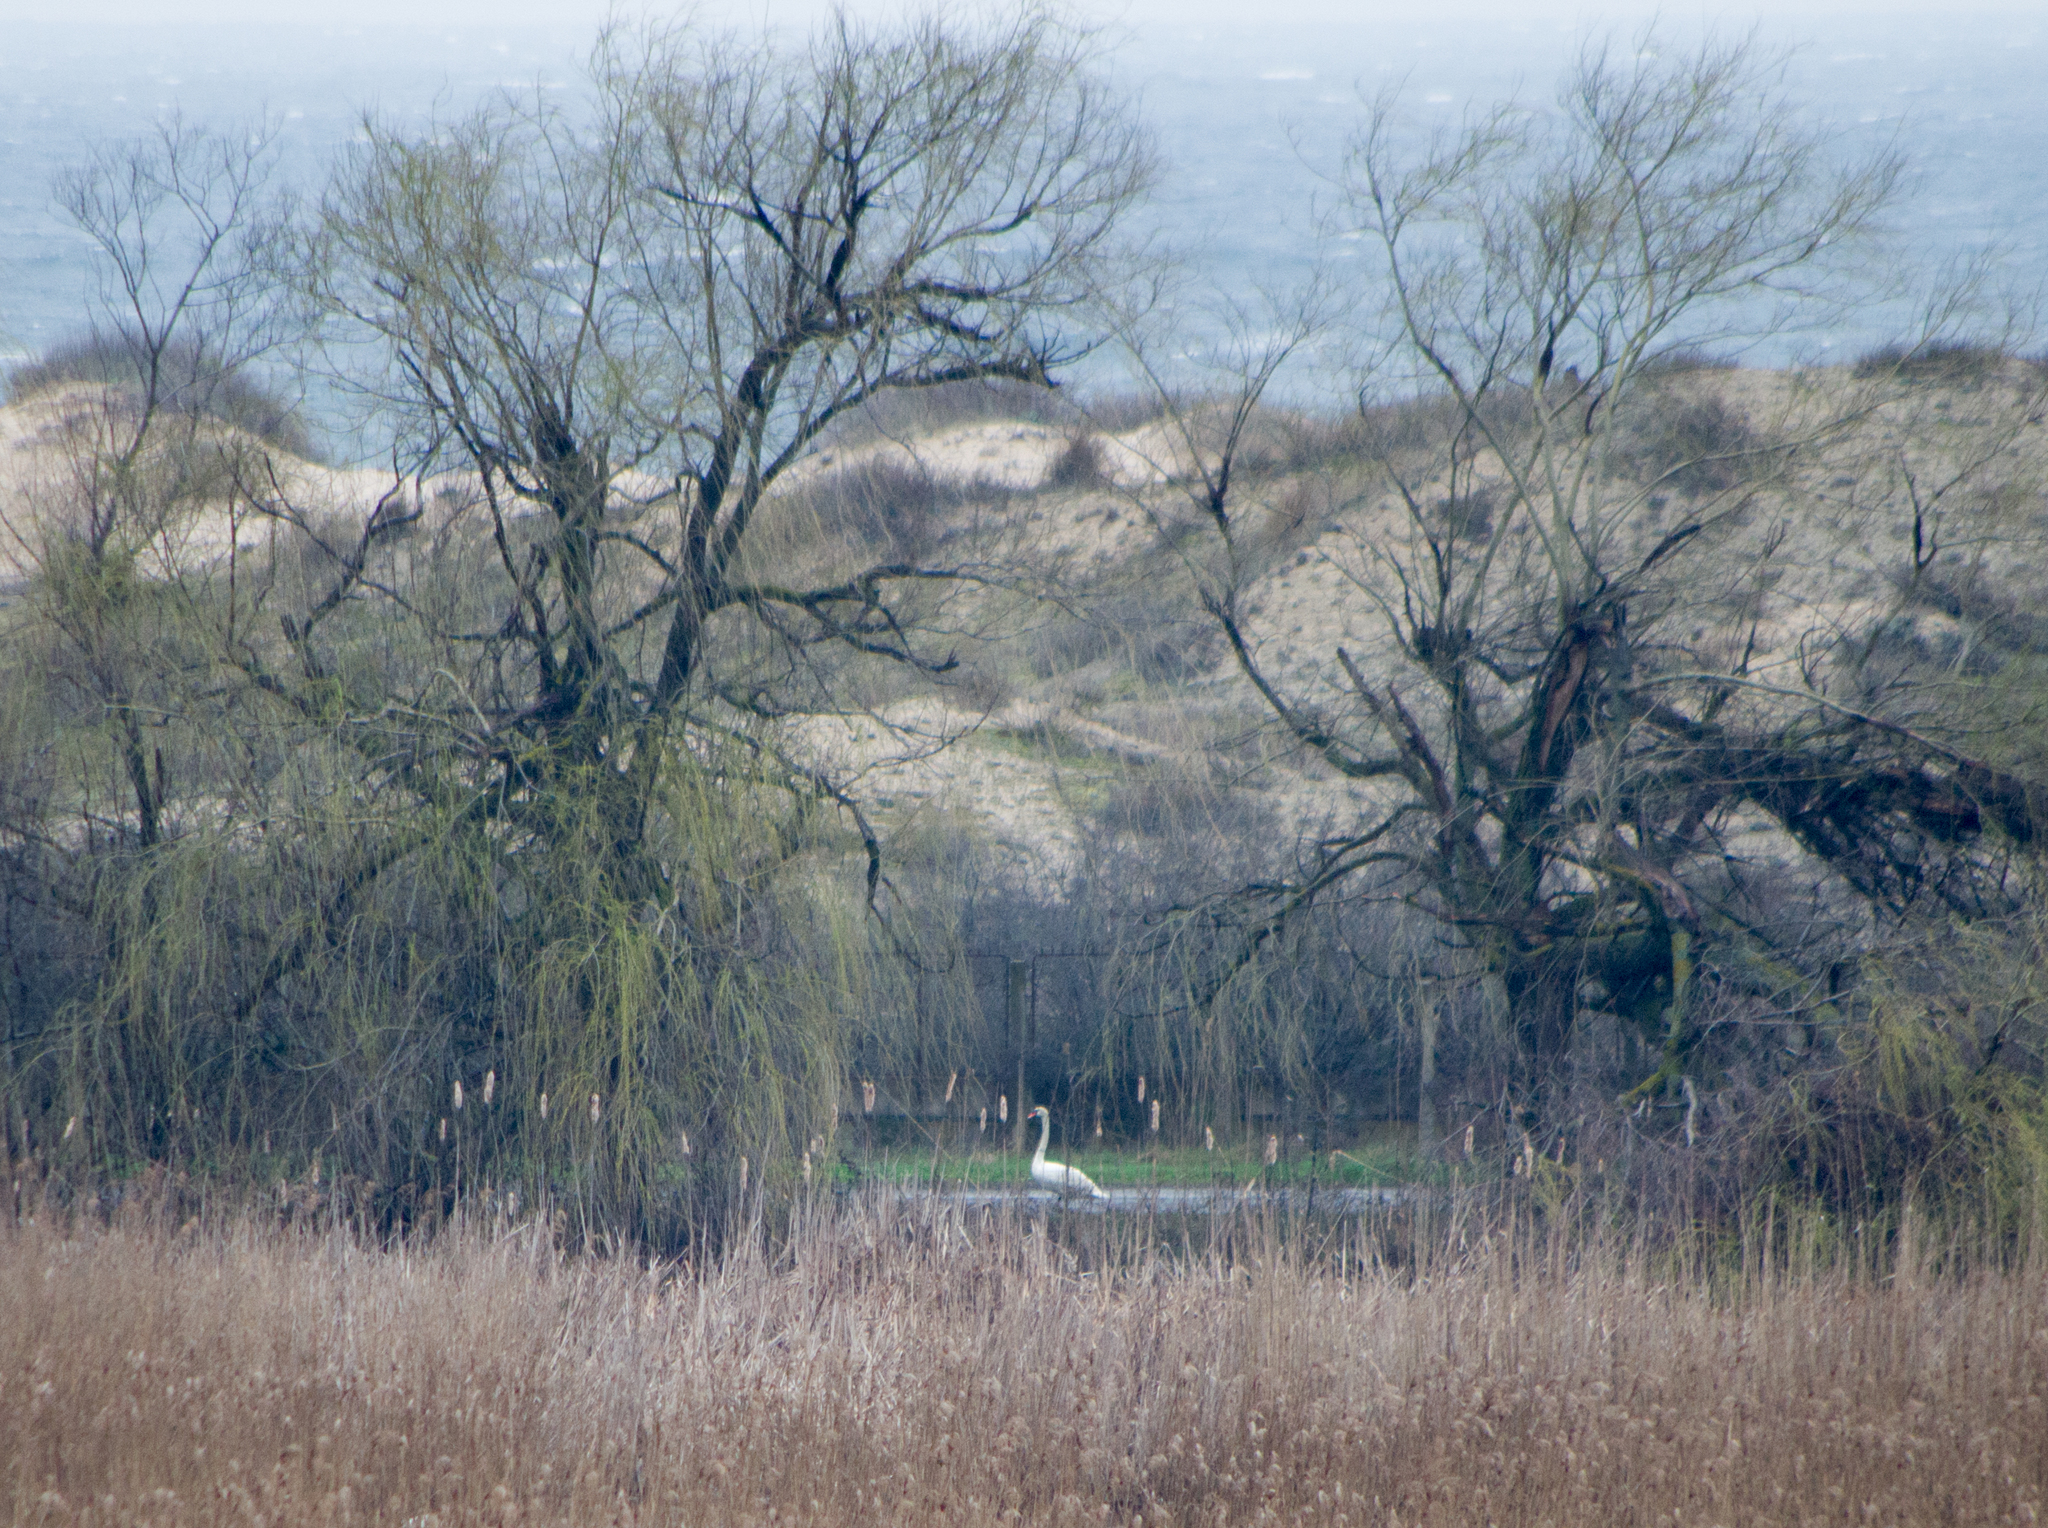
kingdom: Animalia
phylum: Chordata
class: Aves
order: Anseriformes
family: Anatidae
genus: Cygnus
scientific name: Cygnus olor
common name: Mute swan
